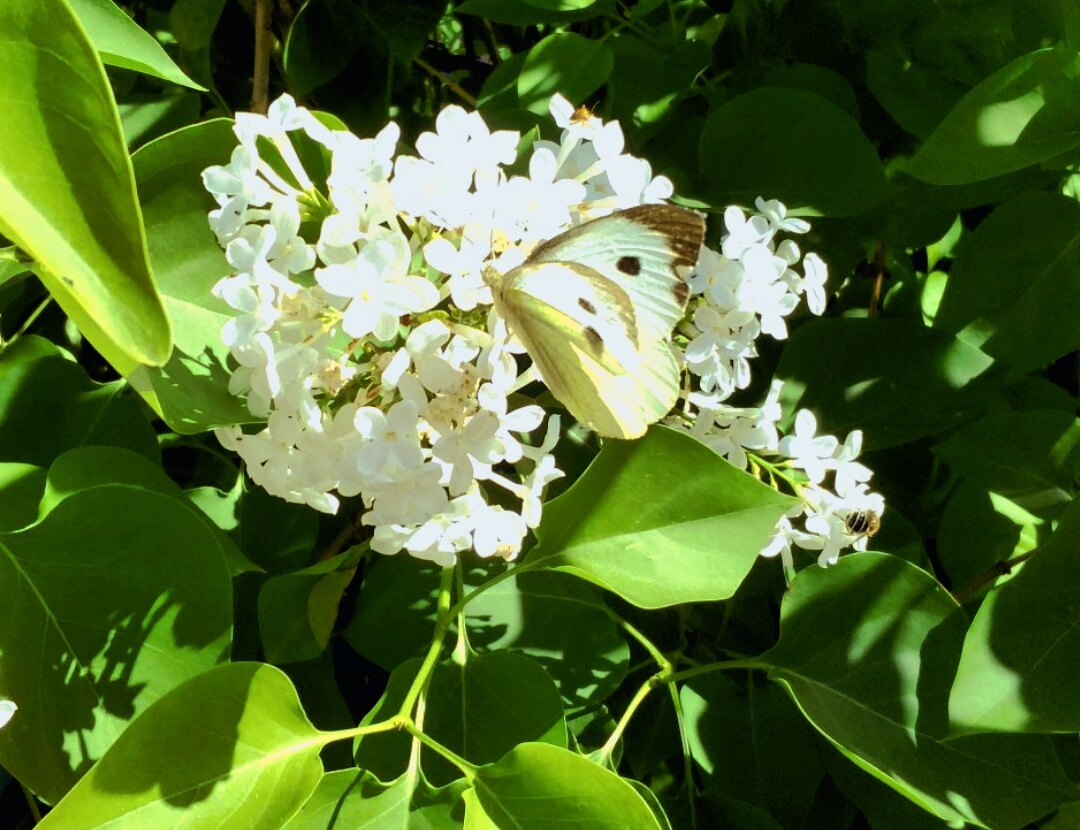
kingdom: Animalia
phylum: Arthropoda
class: Insecta
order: Lepidoptera
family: Pieridae
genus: Pieris
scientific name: Pieris brassicae
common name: Large white
